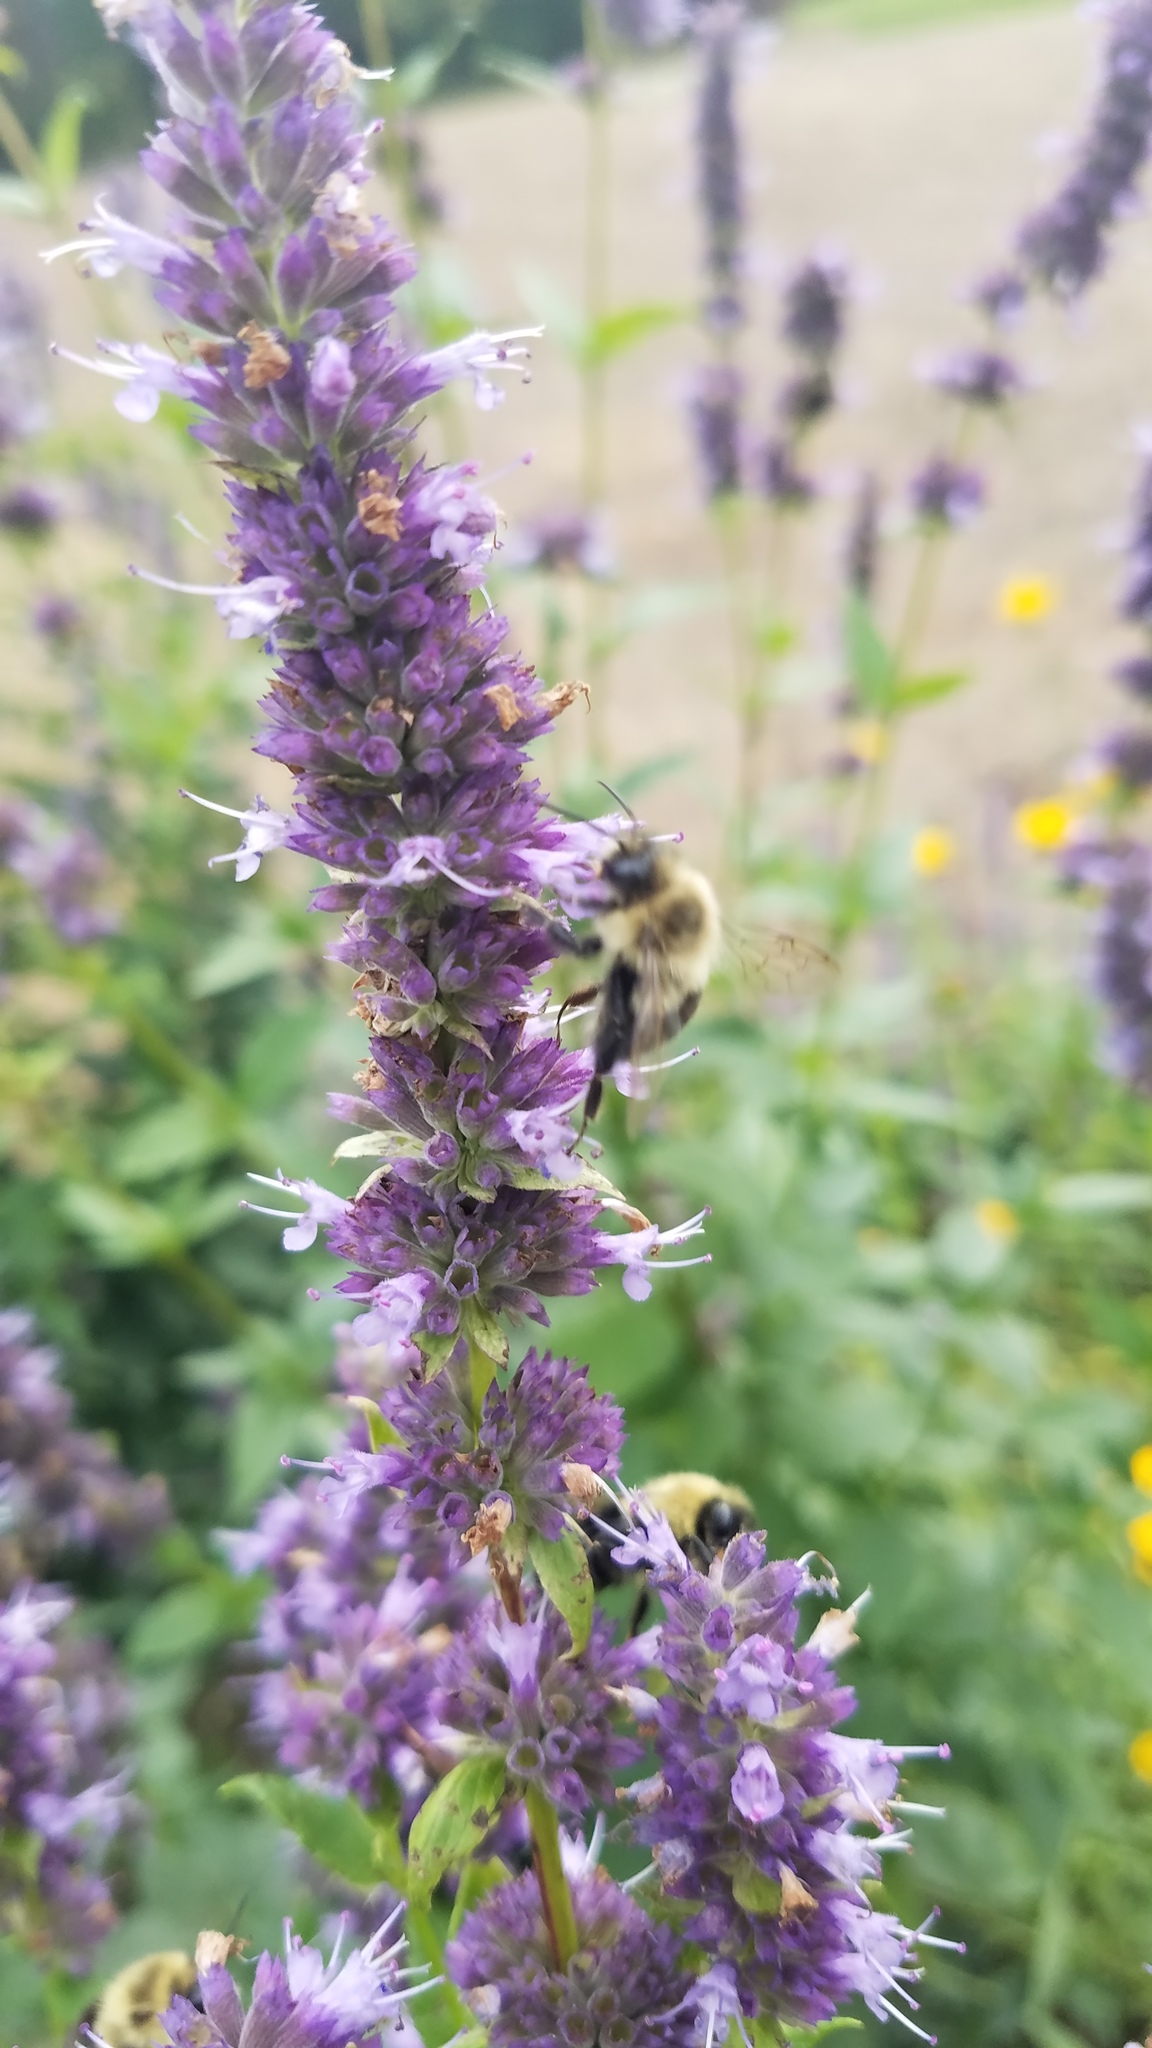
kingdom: Animalia
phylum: Arthropoda
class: Insecta
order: Hymenoptera
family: Apidae
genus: Bombus
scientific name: Bombus impatiens
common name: Common eastern bumble bee
